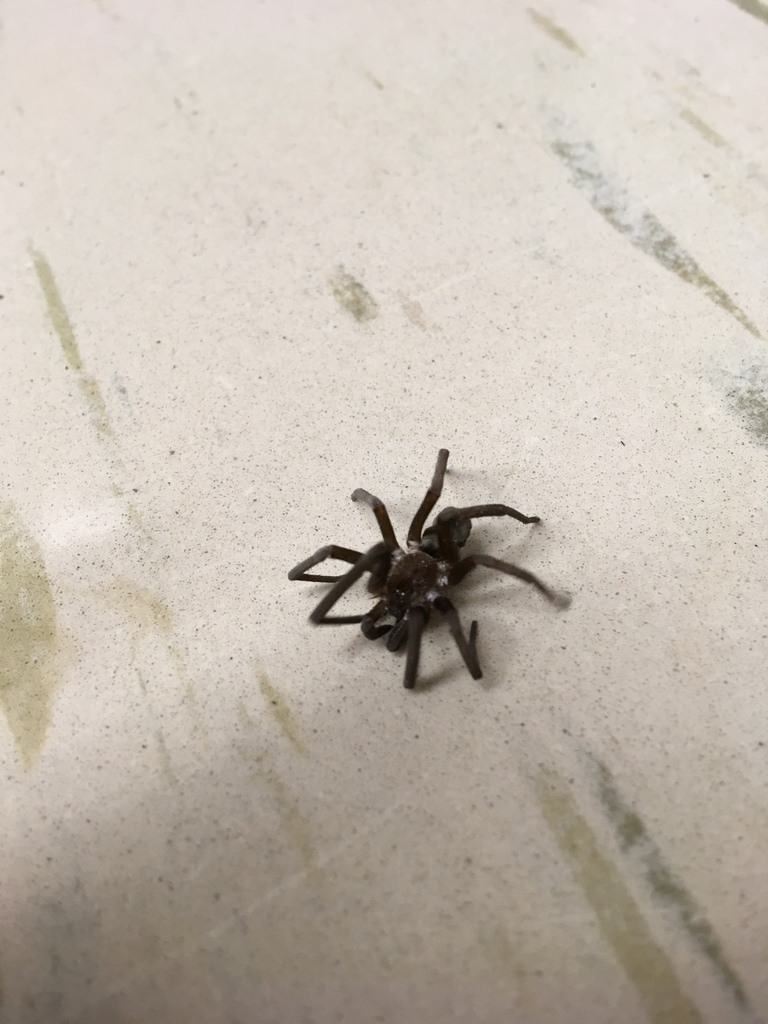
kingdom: Animalia
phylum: Arthropoda
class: Arachnida
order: Araneae
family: Filistatidae
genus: Kukulcania
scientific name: Kukulcania hibernalis
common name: Crevice weaver
